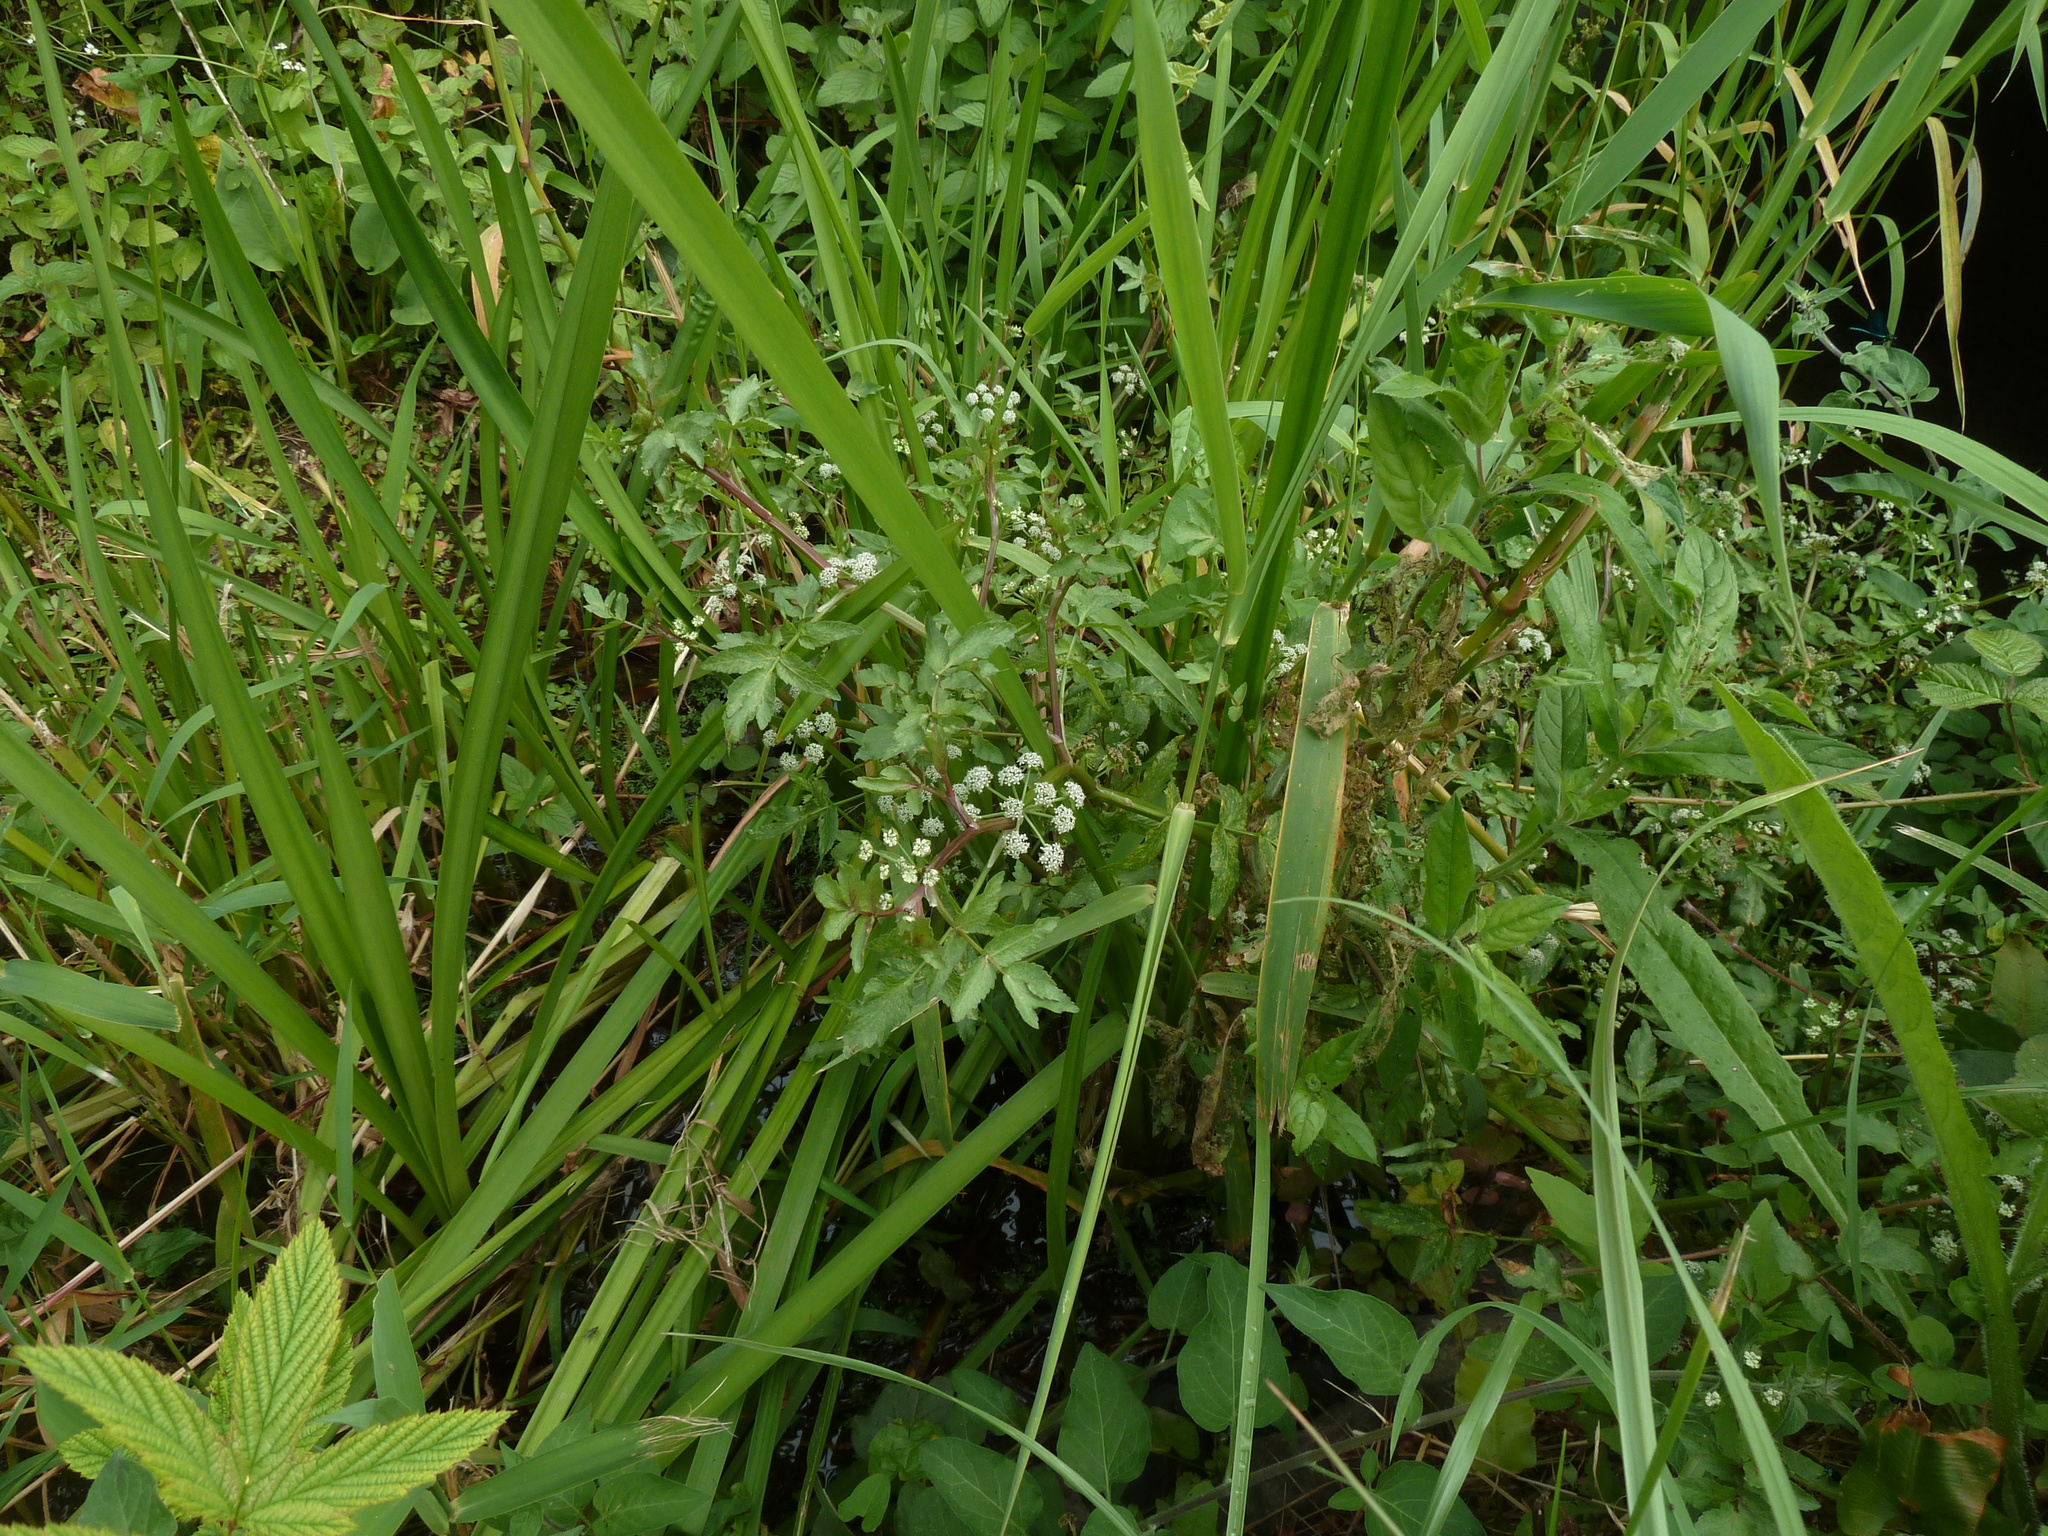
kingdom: Plantae
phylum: Tracheophyta
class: Magnoliopsida
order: Apiales
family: Apiaceae
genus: Helosciadium
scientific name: Helosciadium nodiflorum
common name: Fool's-watercress
